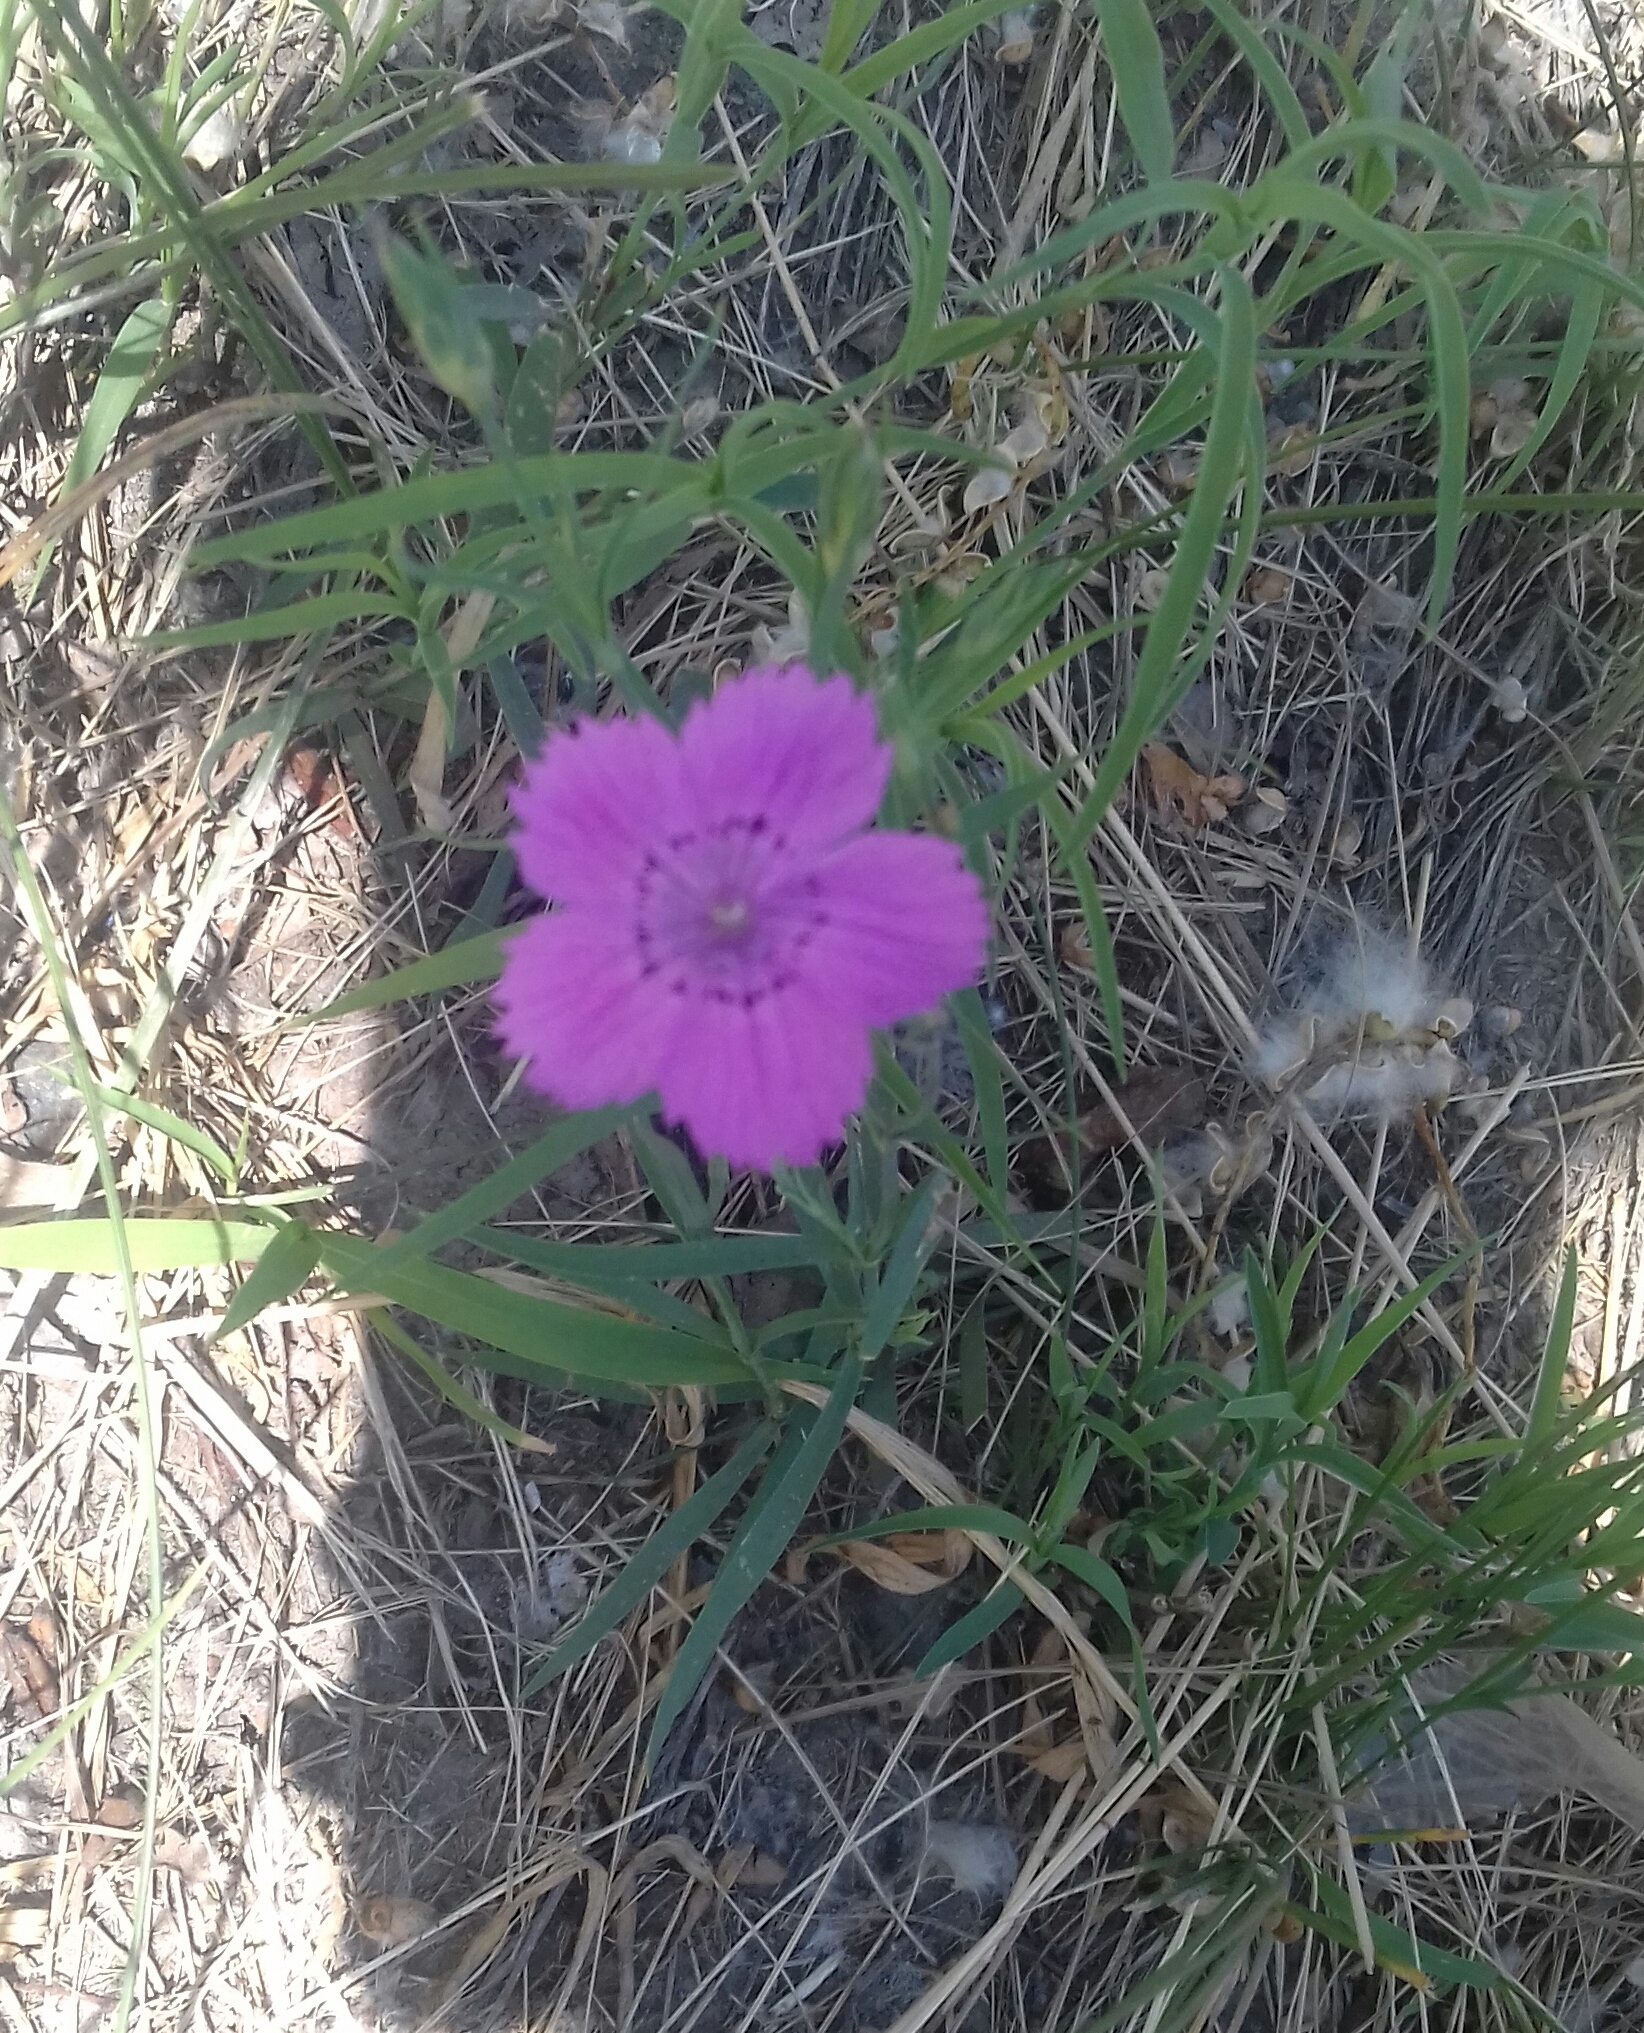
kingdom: Plantae
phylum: Tracheophyta
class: Magnoliopsida
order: Caryophyllales
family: Caryophyllaceae
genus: Dianthus
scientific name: Dianthus chinensis
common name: Rainbow pink
